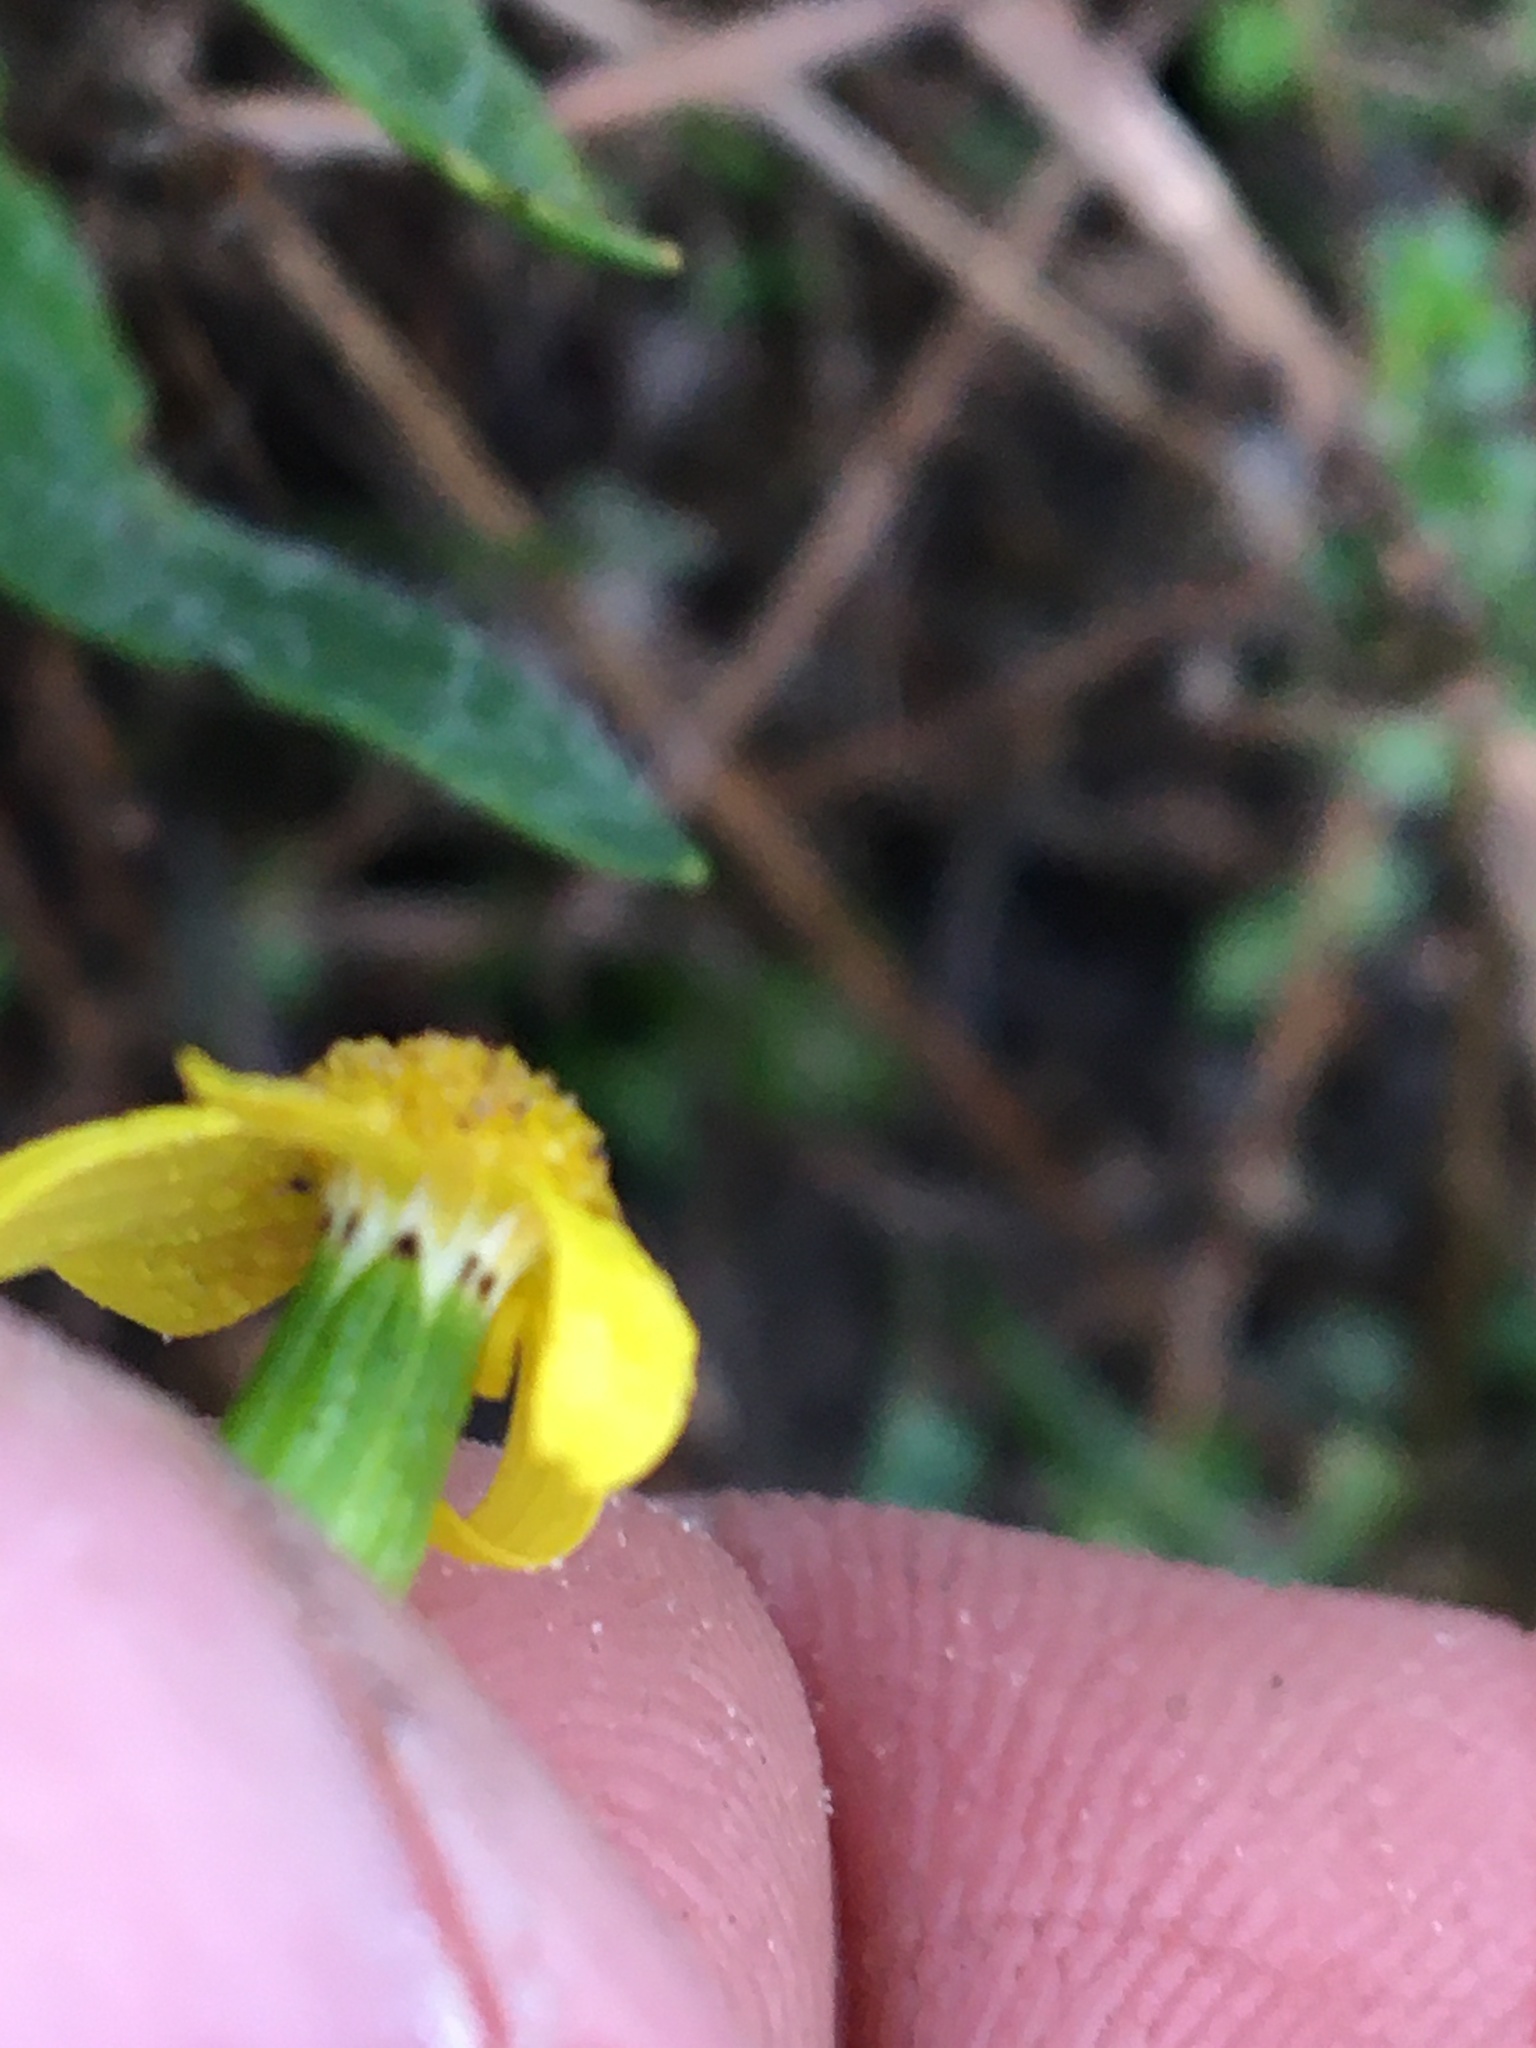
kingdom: Plantae
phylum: Tracheophyta
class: Magnoliopsida
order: Asterales
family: Asteraceae
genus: Senecio
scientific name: Senecio burchellii
